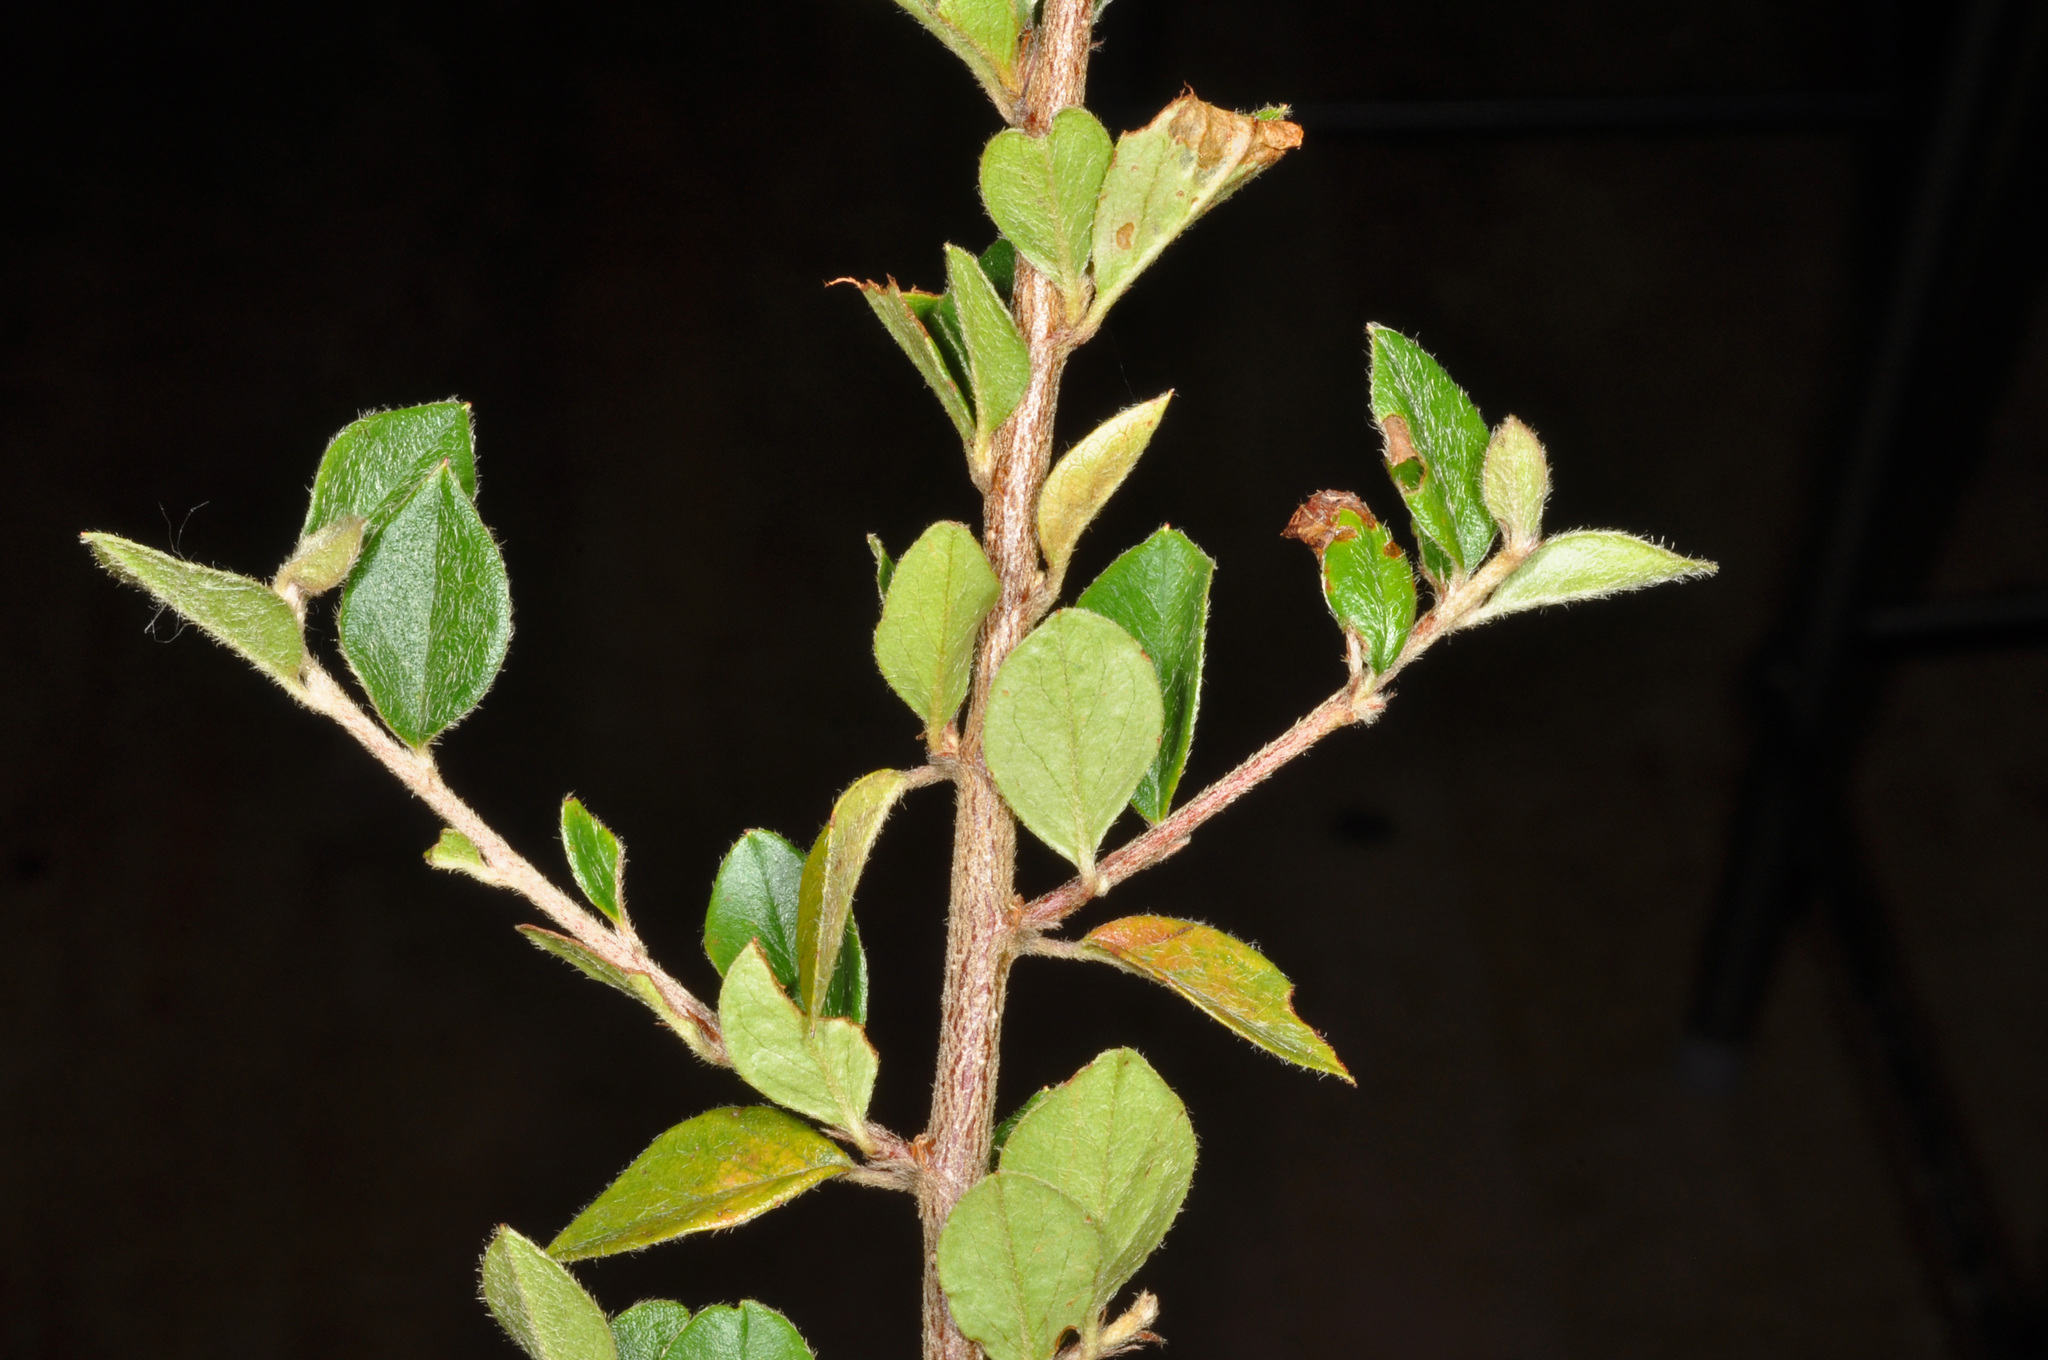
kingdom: Plantae
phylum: Tracheophyta
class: Magnoliopsida
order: Rosales
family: Rosaceae
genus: Cotoneaster
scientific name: Cotoneaster simonsii
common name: Himalayan cotoneaster
